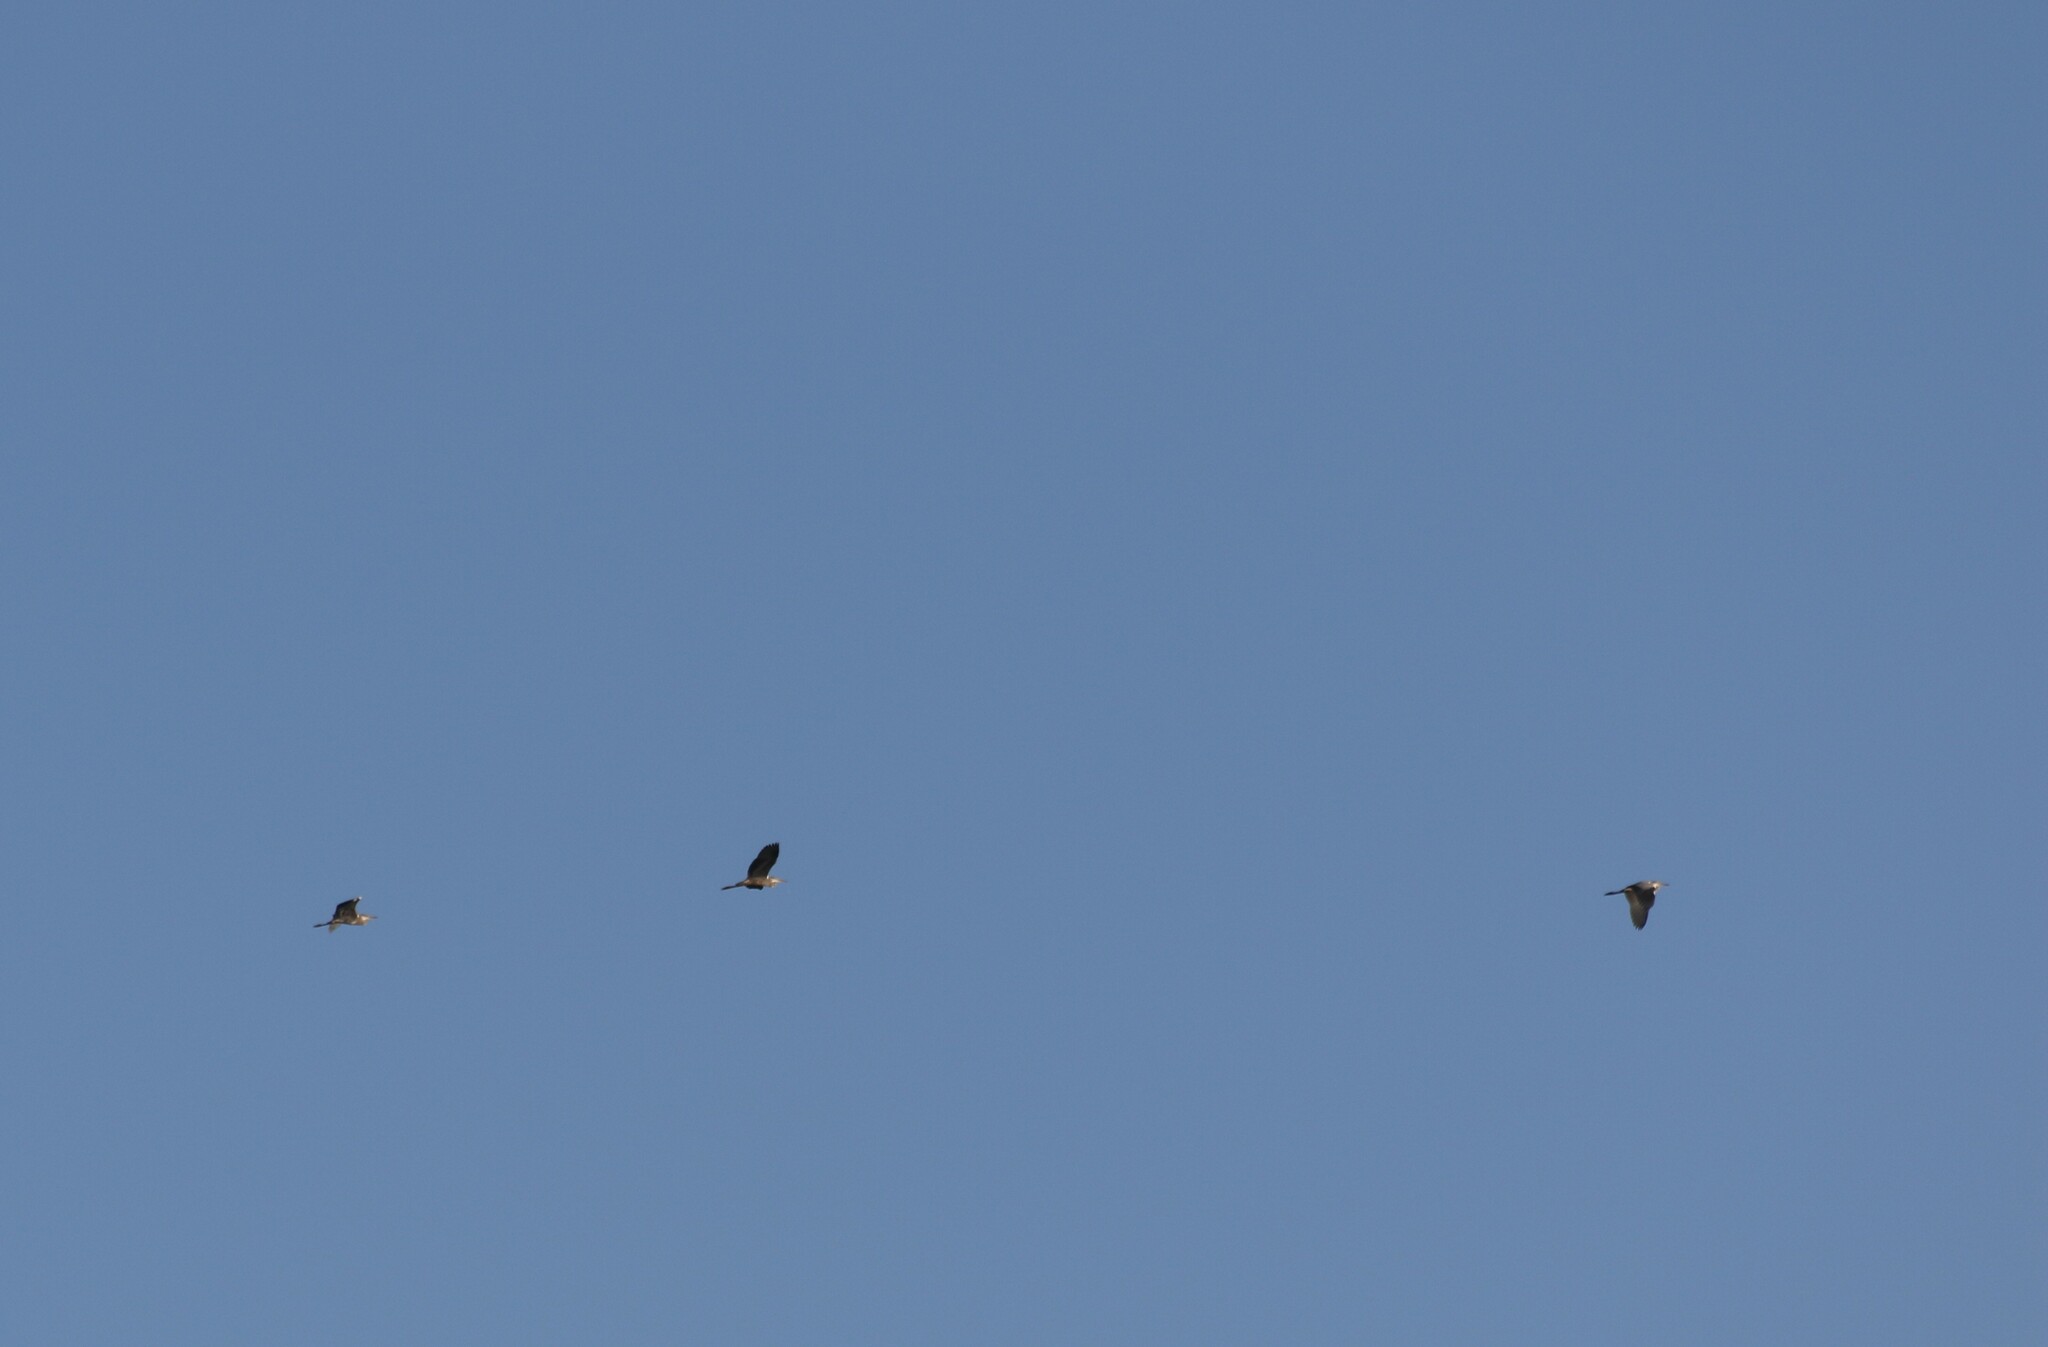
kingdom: Animalia
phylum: Chordata
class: Aves
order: Pelecaniformes
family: Ardeidae
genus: Ardea
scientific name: Ardea cinerea
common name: Grey heron
